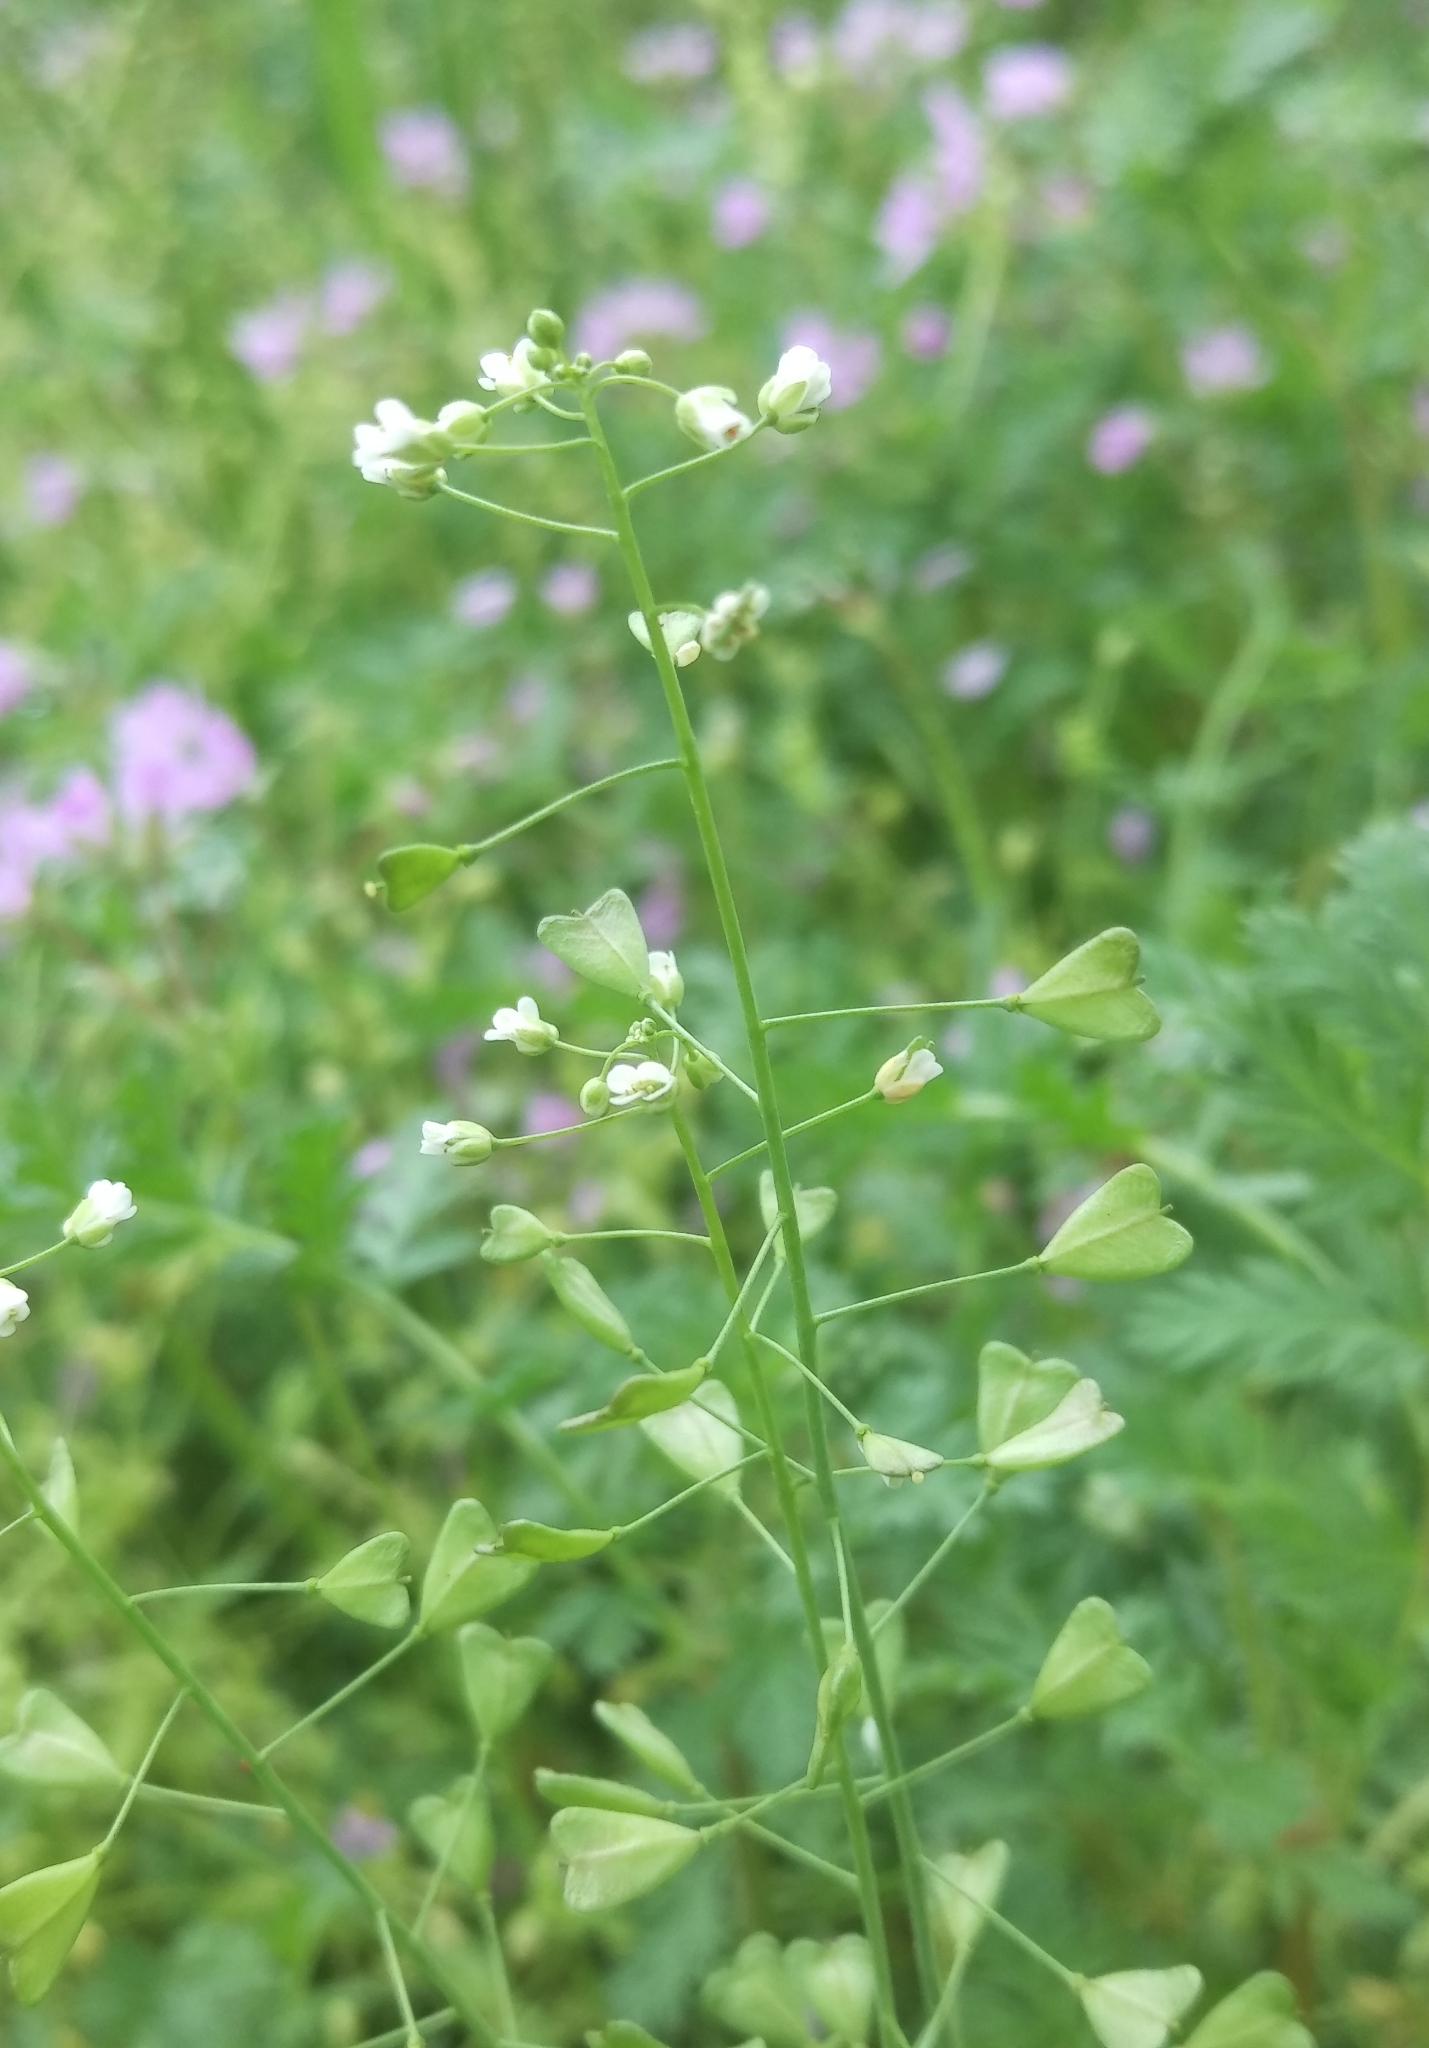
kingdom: Plantae
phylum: Tracheophyta
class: Magnoliopsida
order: Brassicales
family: Brassicaceae
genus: Capsella
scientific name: Capsella bursa-pastoris
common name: Shepherd's purse
